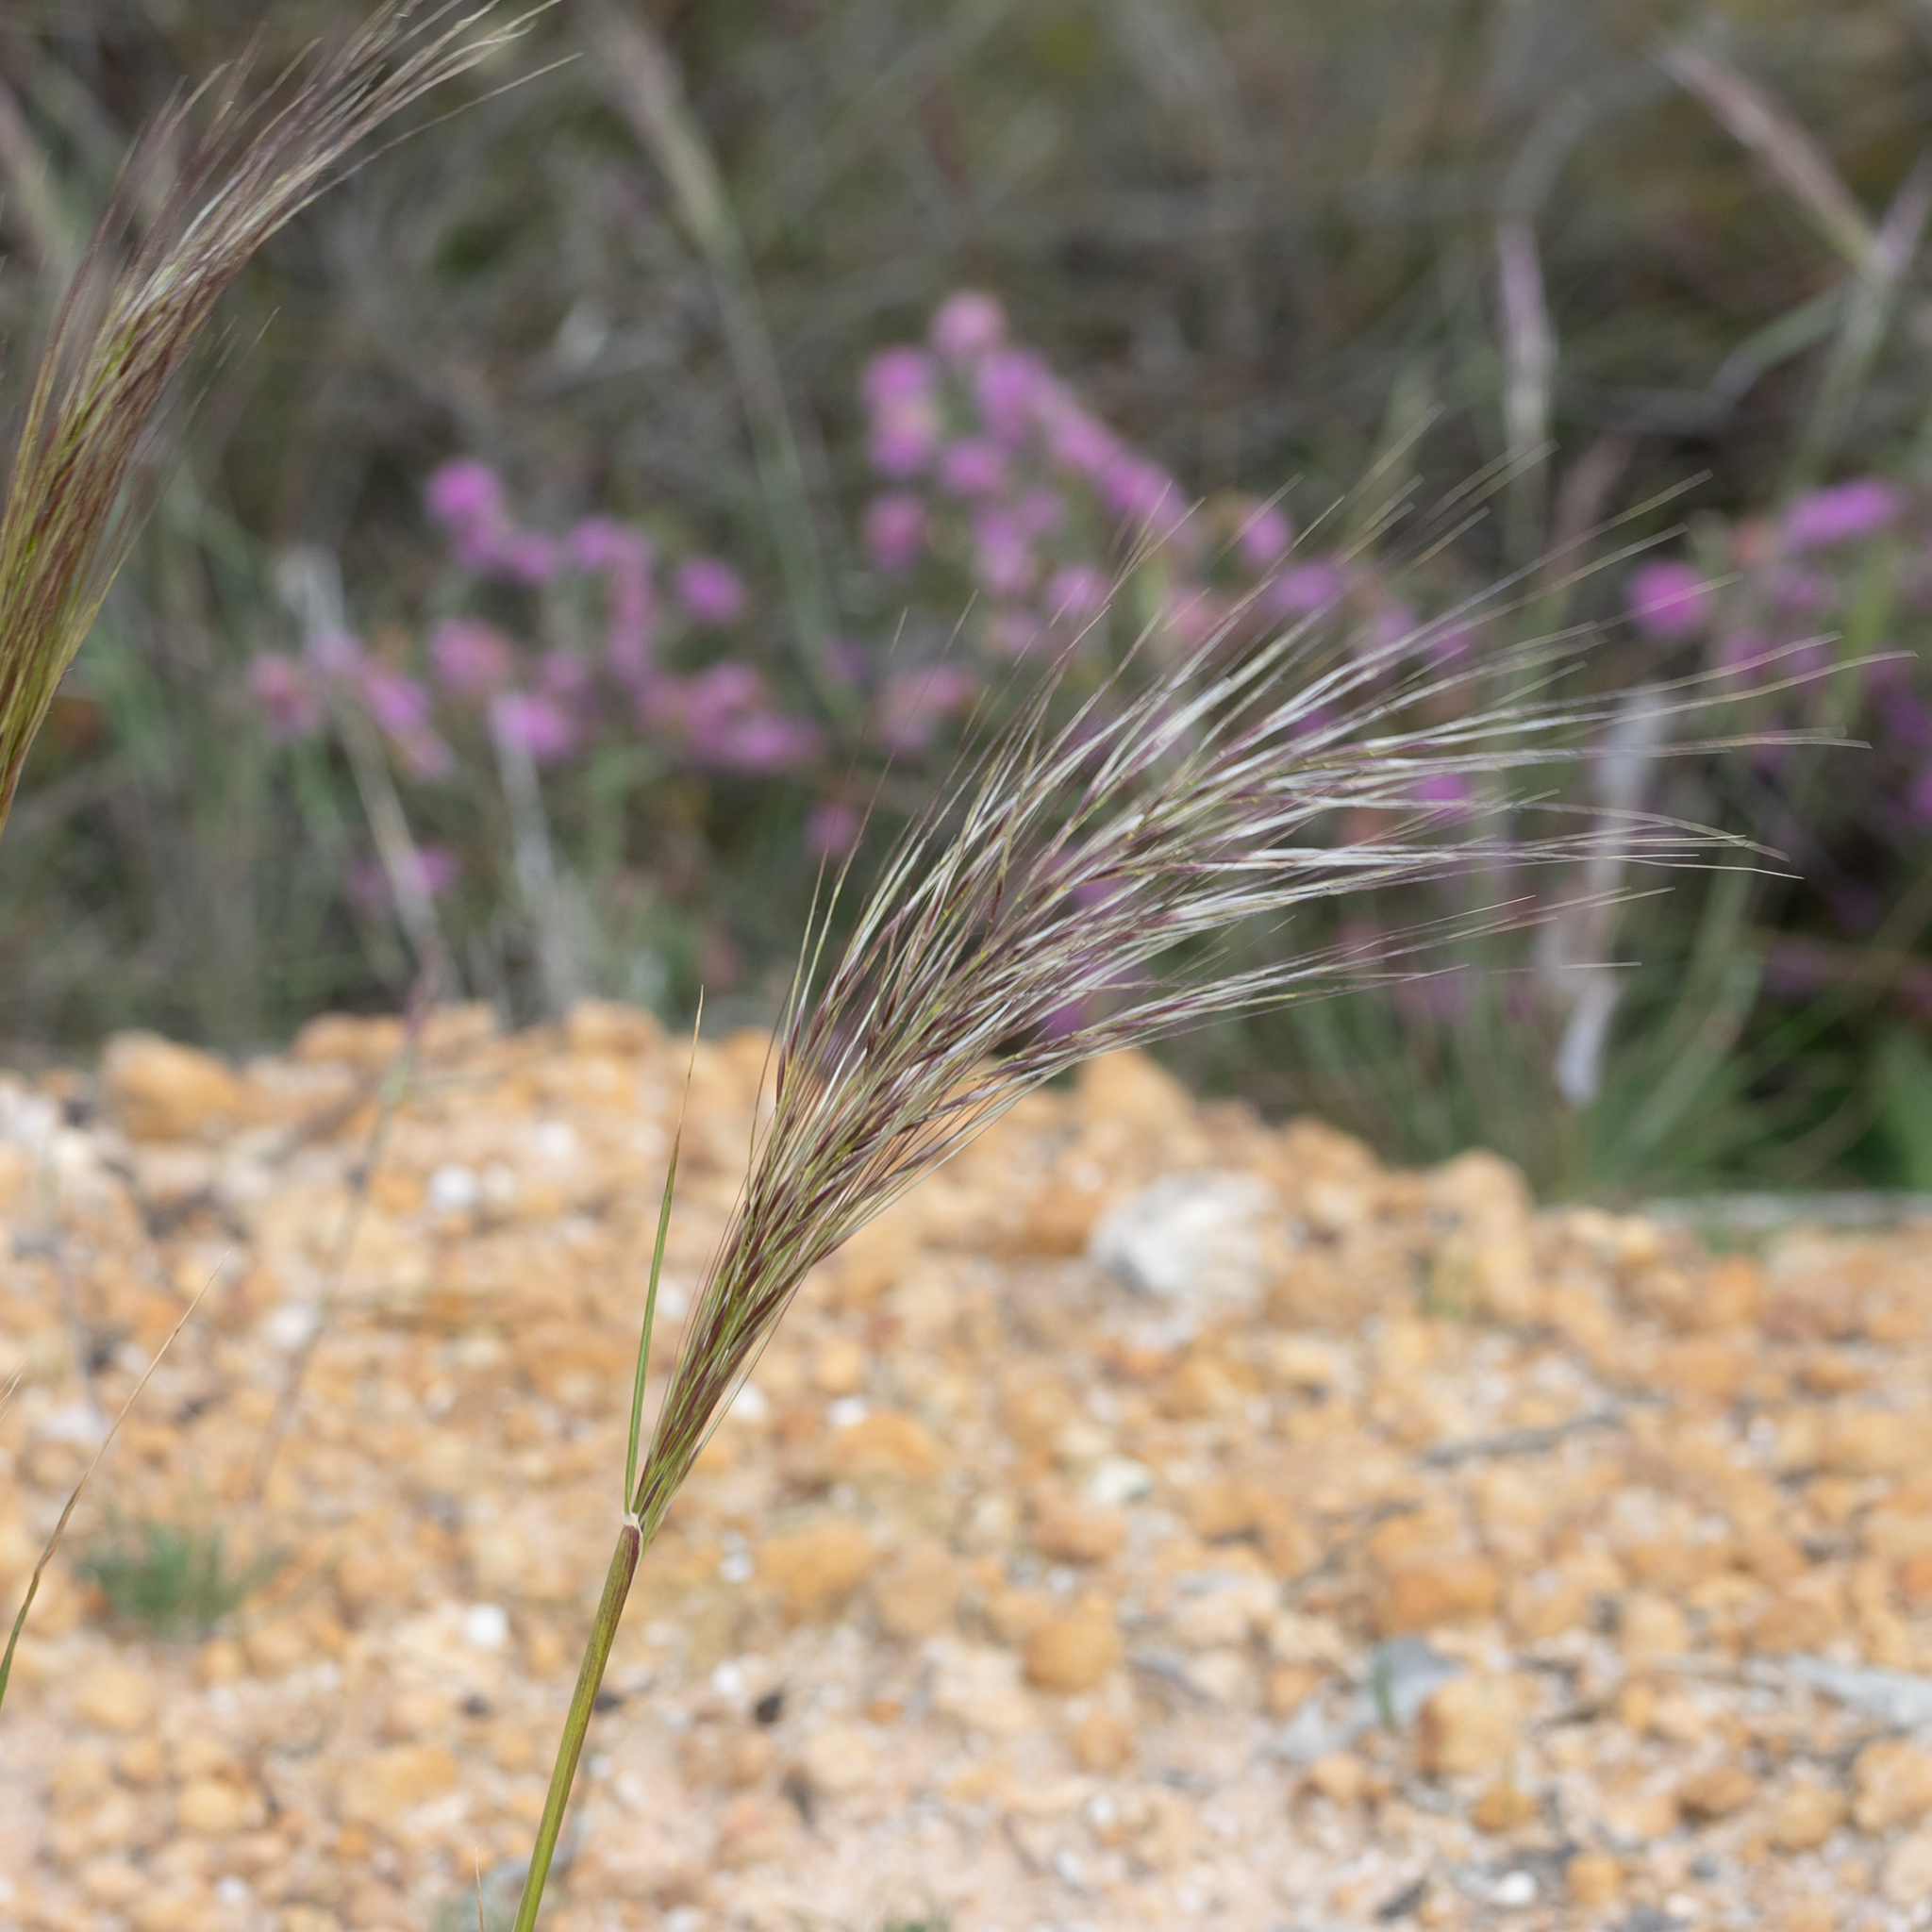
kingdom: Plantae
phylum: Tracheophyta
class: Liliopsida
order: Poales
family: Poaceae
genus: Austrostipa
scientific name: Austrostipa mollis
